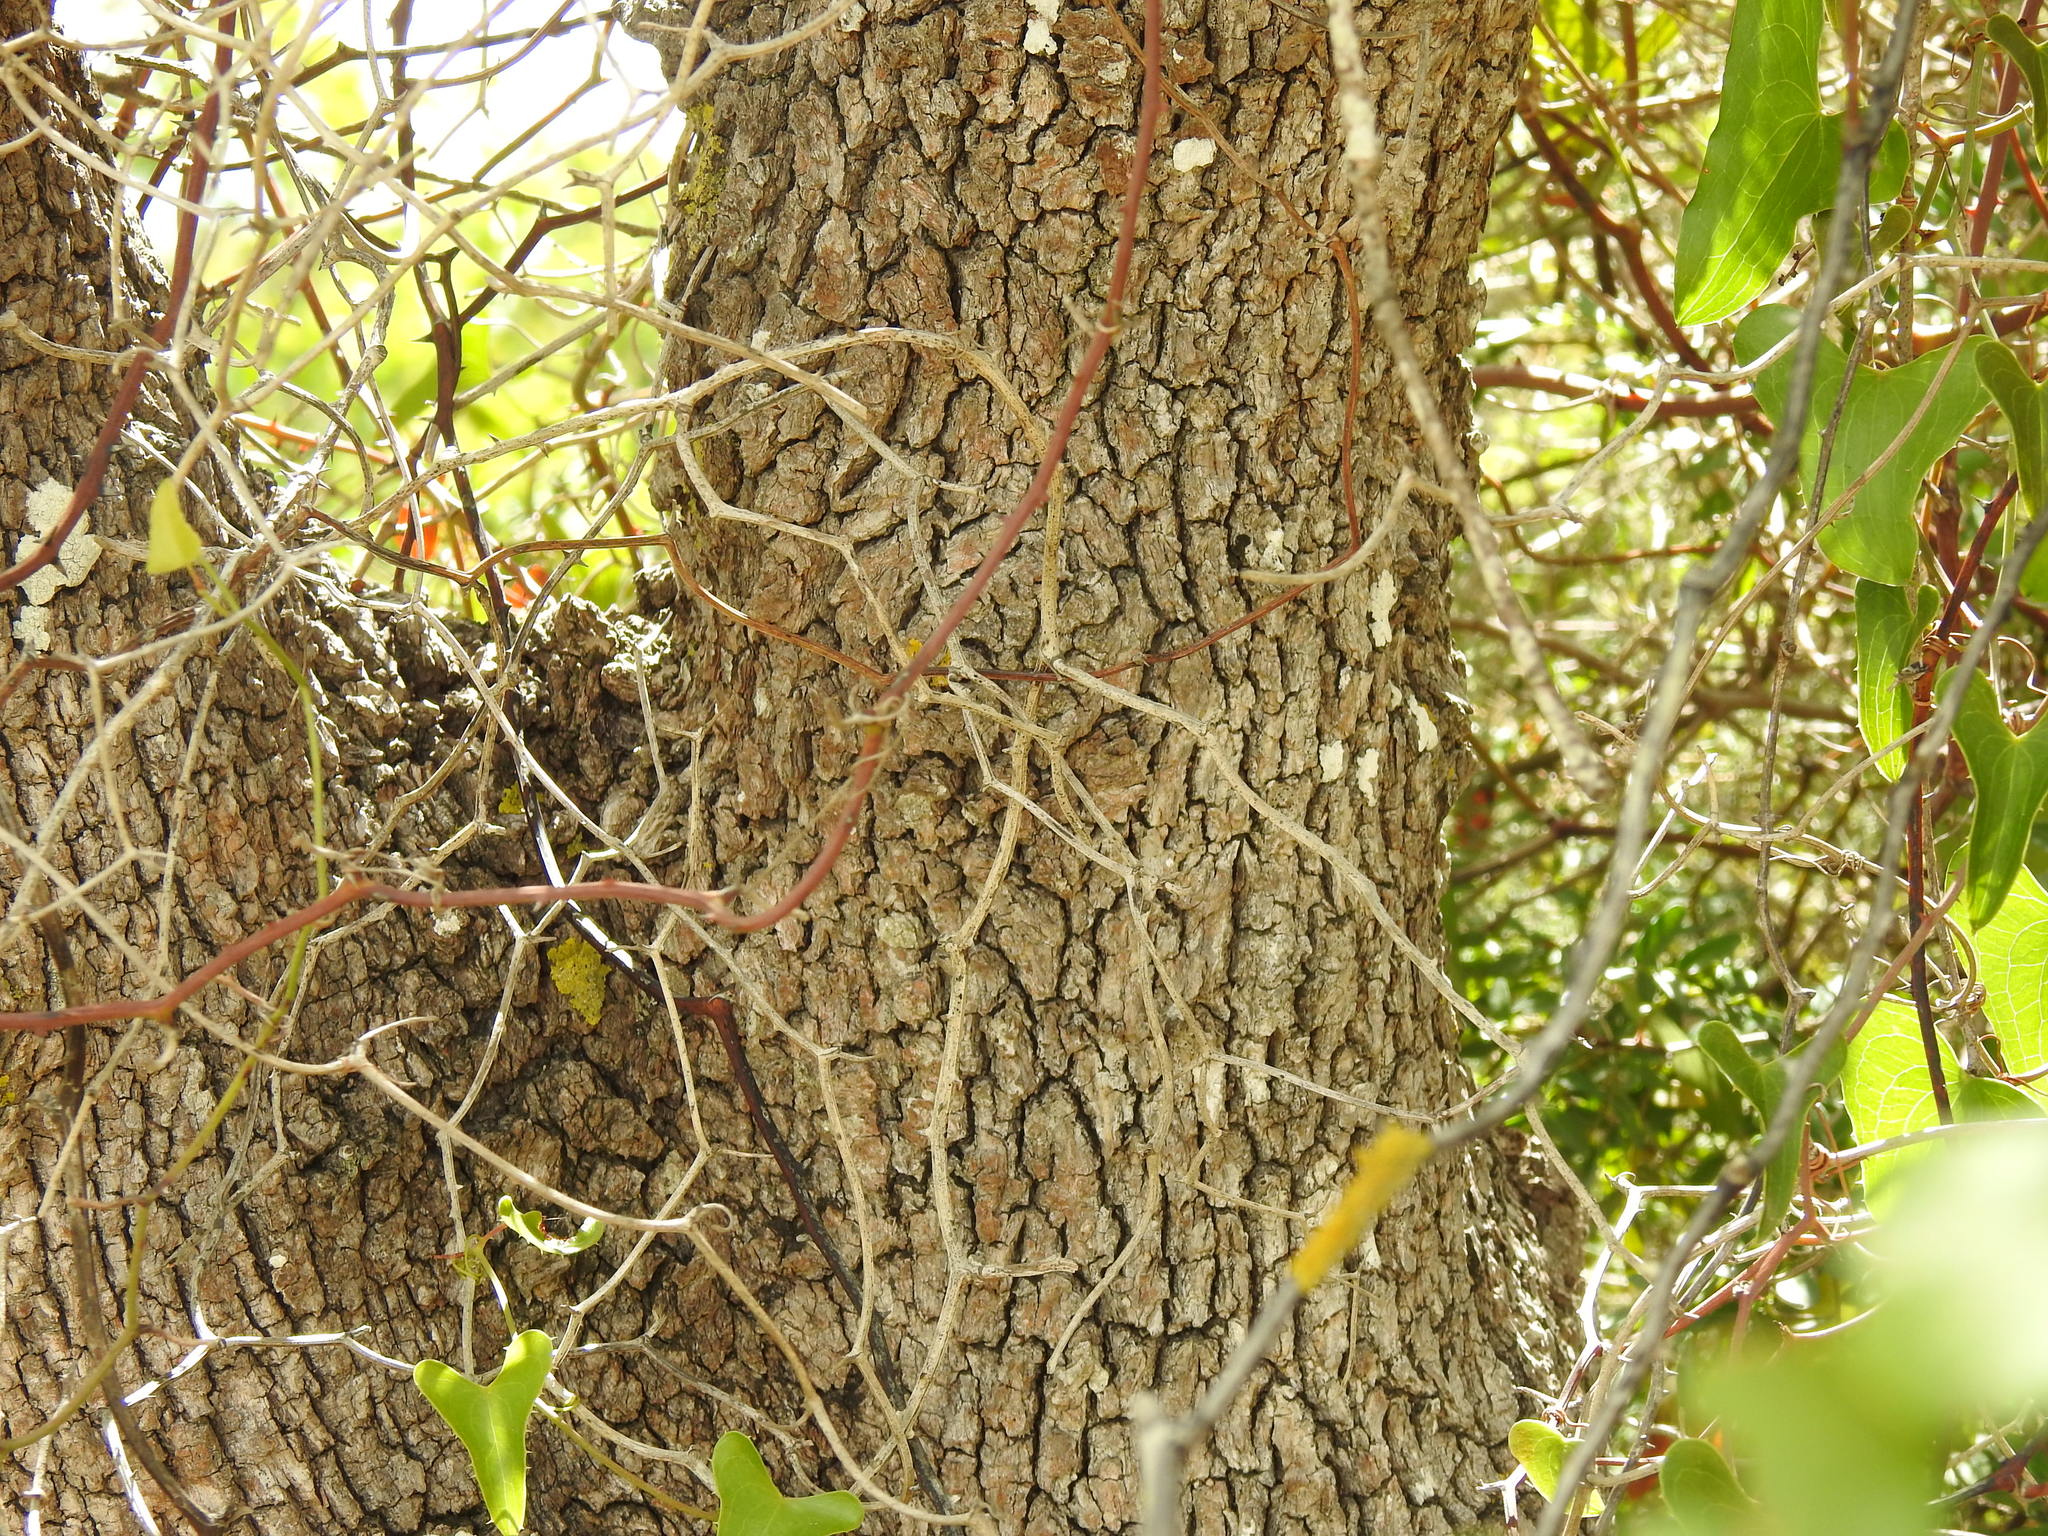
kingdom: Plantae
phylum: Tracheophyta
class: Magnoliopsida
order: Fagales
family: Fagaceae
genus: Quercus
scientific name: Quercus rotundifolia
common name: Holm oak
